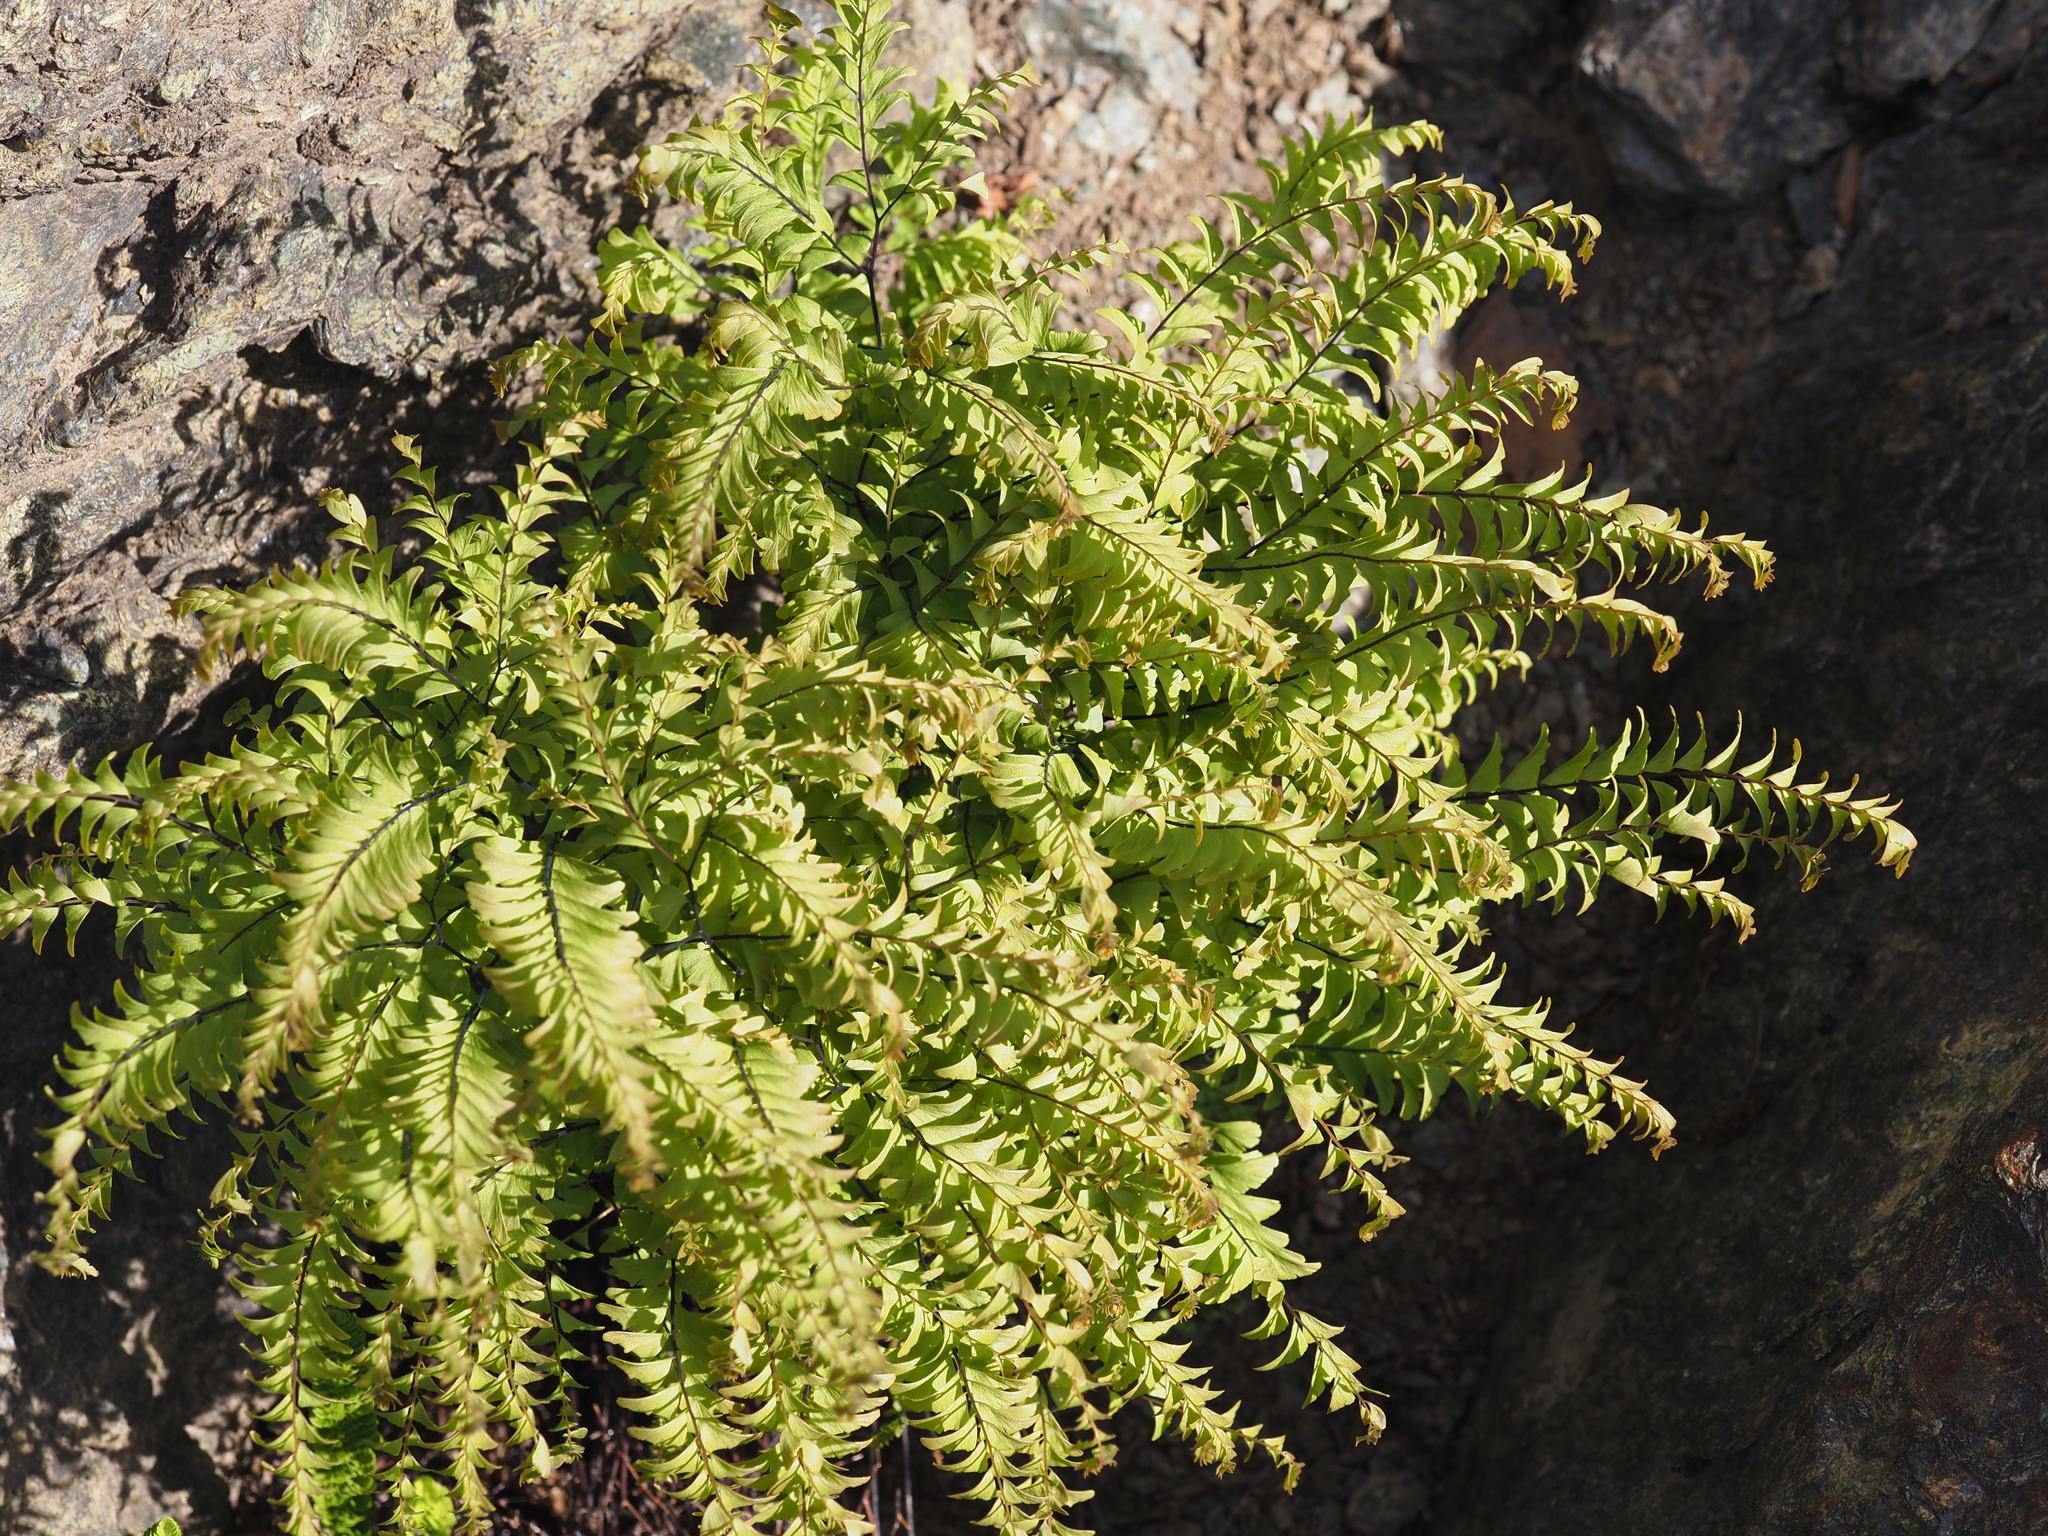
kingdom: Plantae
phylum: Tracheophyta
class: Polypodiopsida
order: Polypodiales
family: Pteridaceae
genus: Adiantum
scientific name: Adiantum aleuticum
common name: Aleutian maidenhair fern
